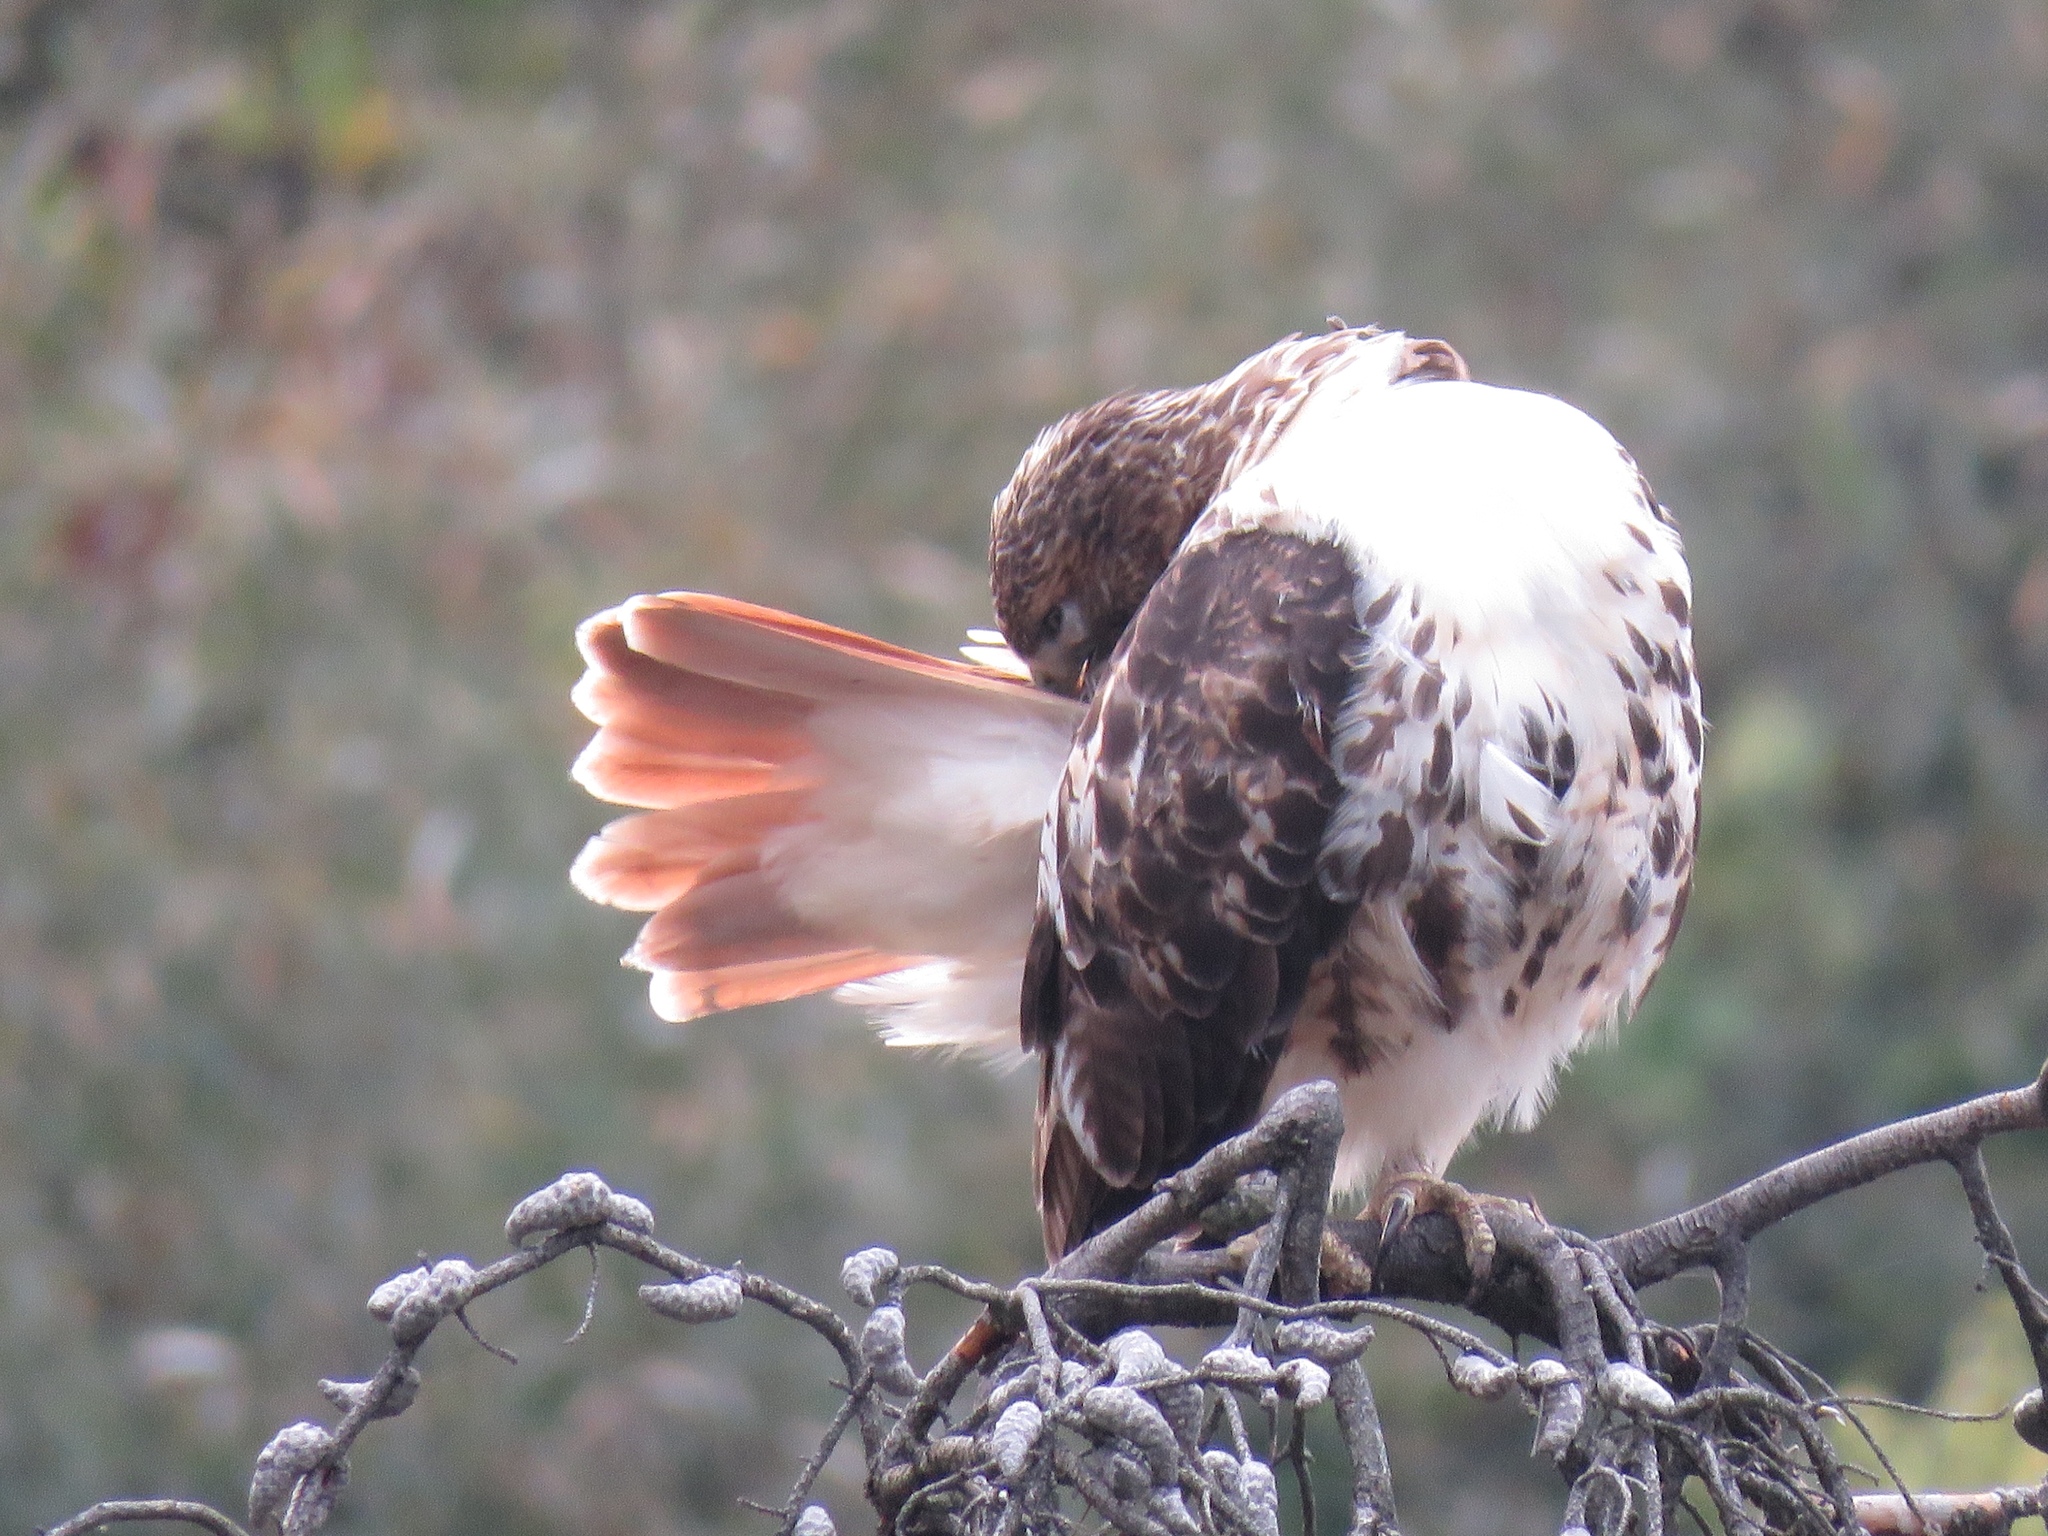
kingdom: Animalia
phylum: Chordata
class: Aves
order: Accipitriformes
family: Accipitridae
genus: Buteo
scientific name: Buteo jamaicensis
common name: Red-tailed hawk
